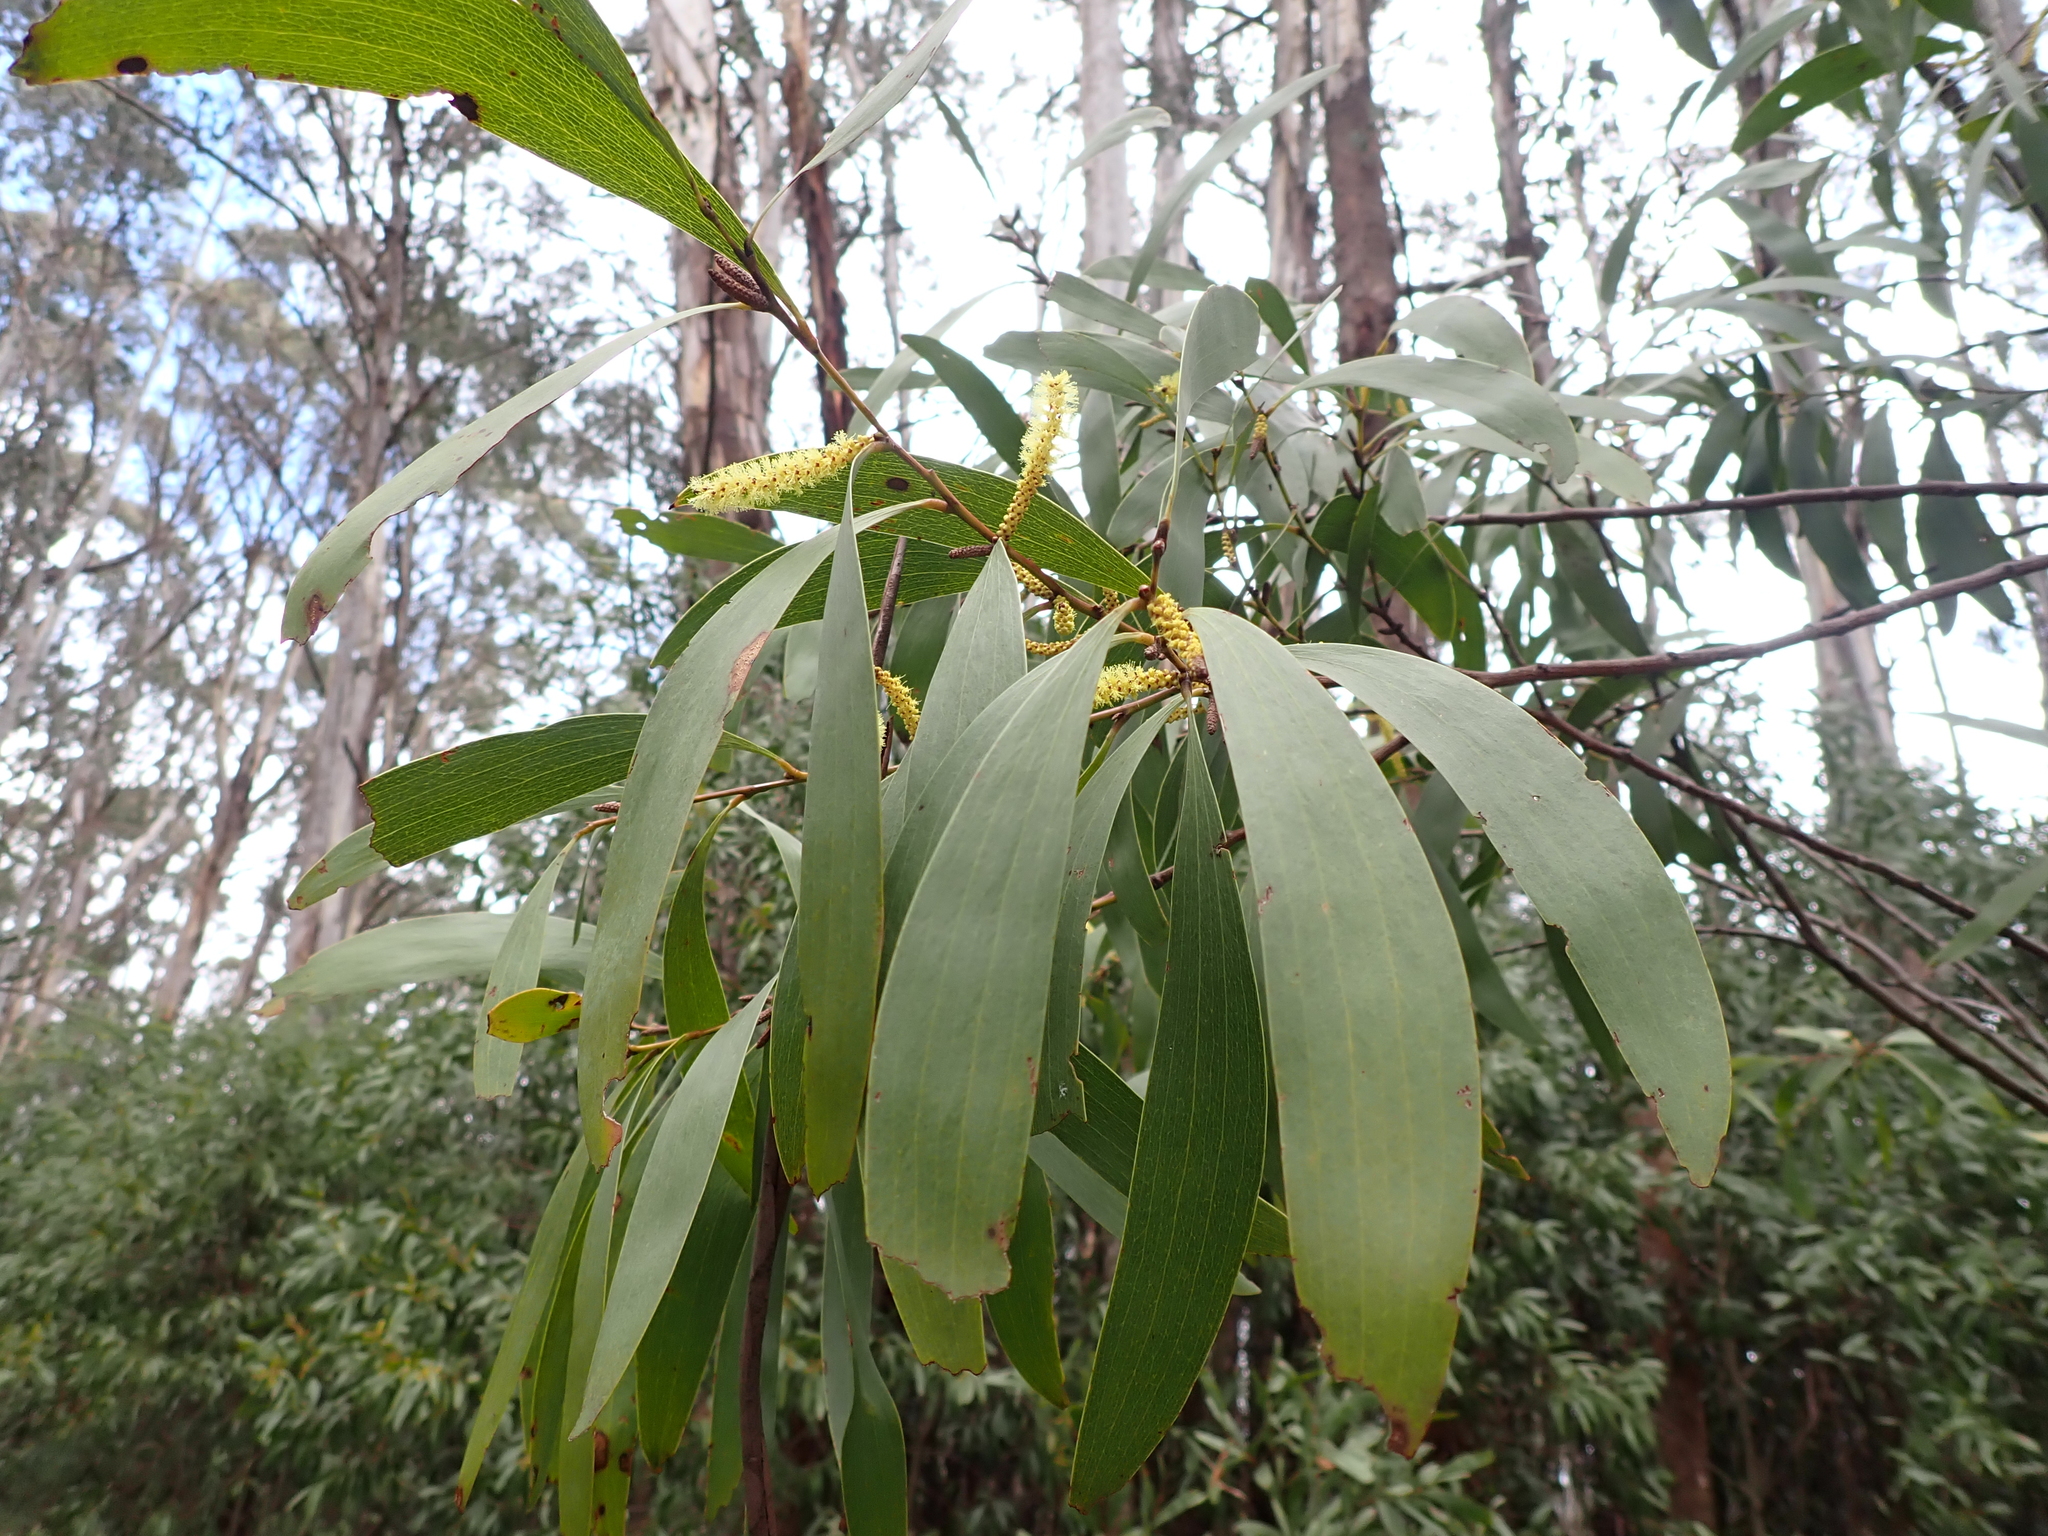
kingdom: Plantae
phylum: Tracheophyta
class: Magnoliopsida
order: Fabales
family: Fabaceae
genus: Acacia
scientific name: Acacia dallachiana
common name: Catkin wattle
